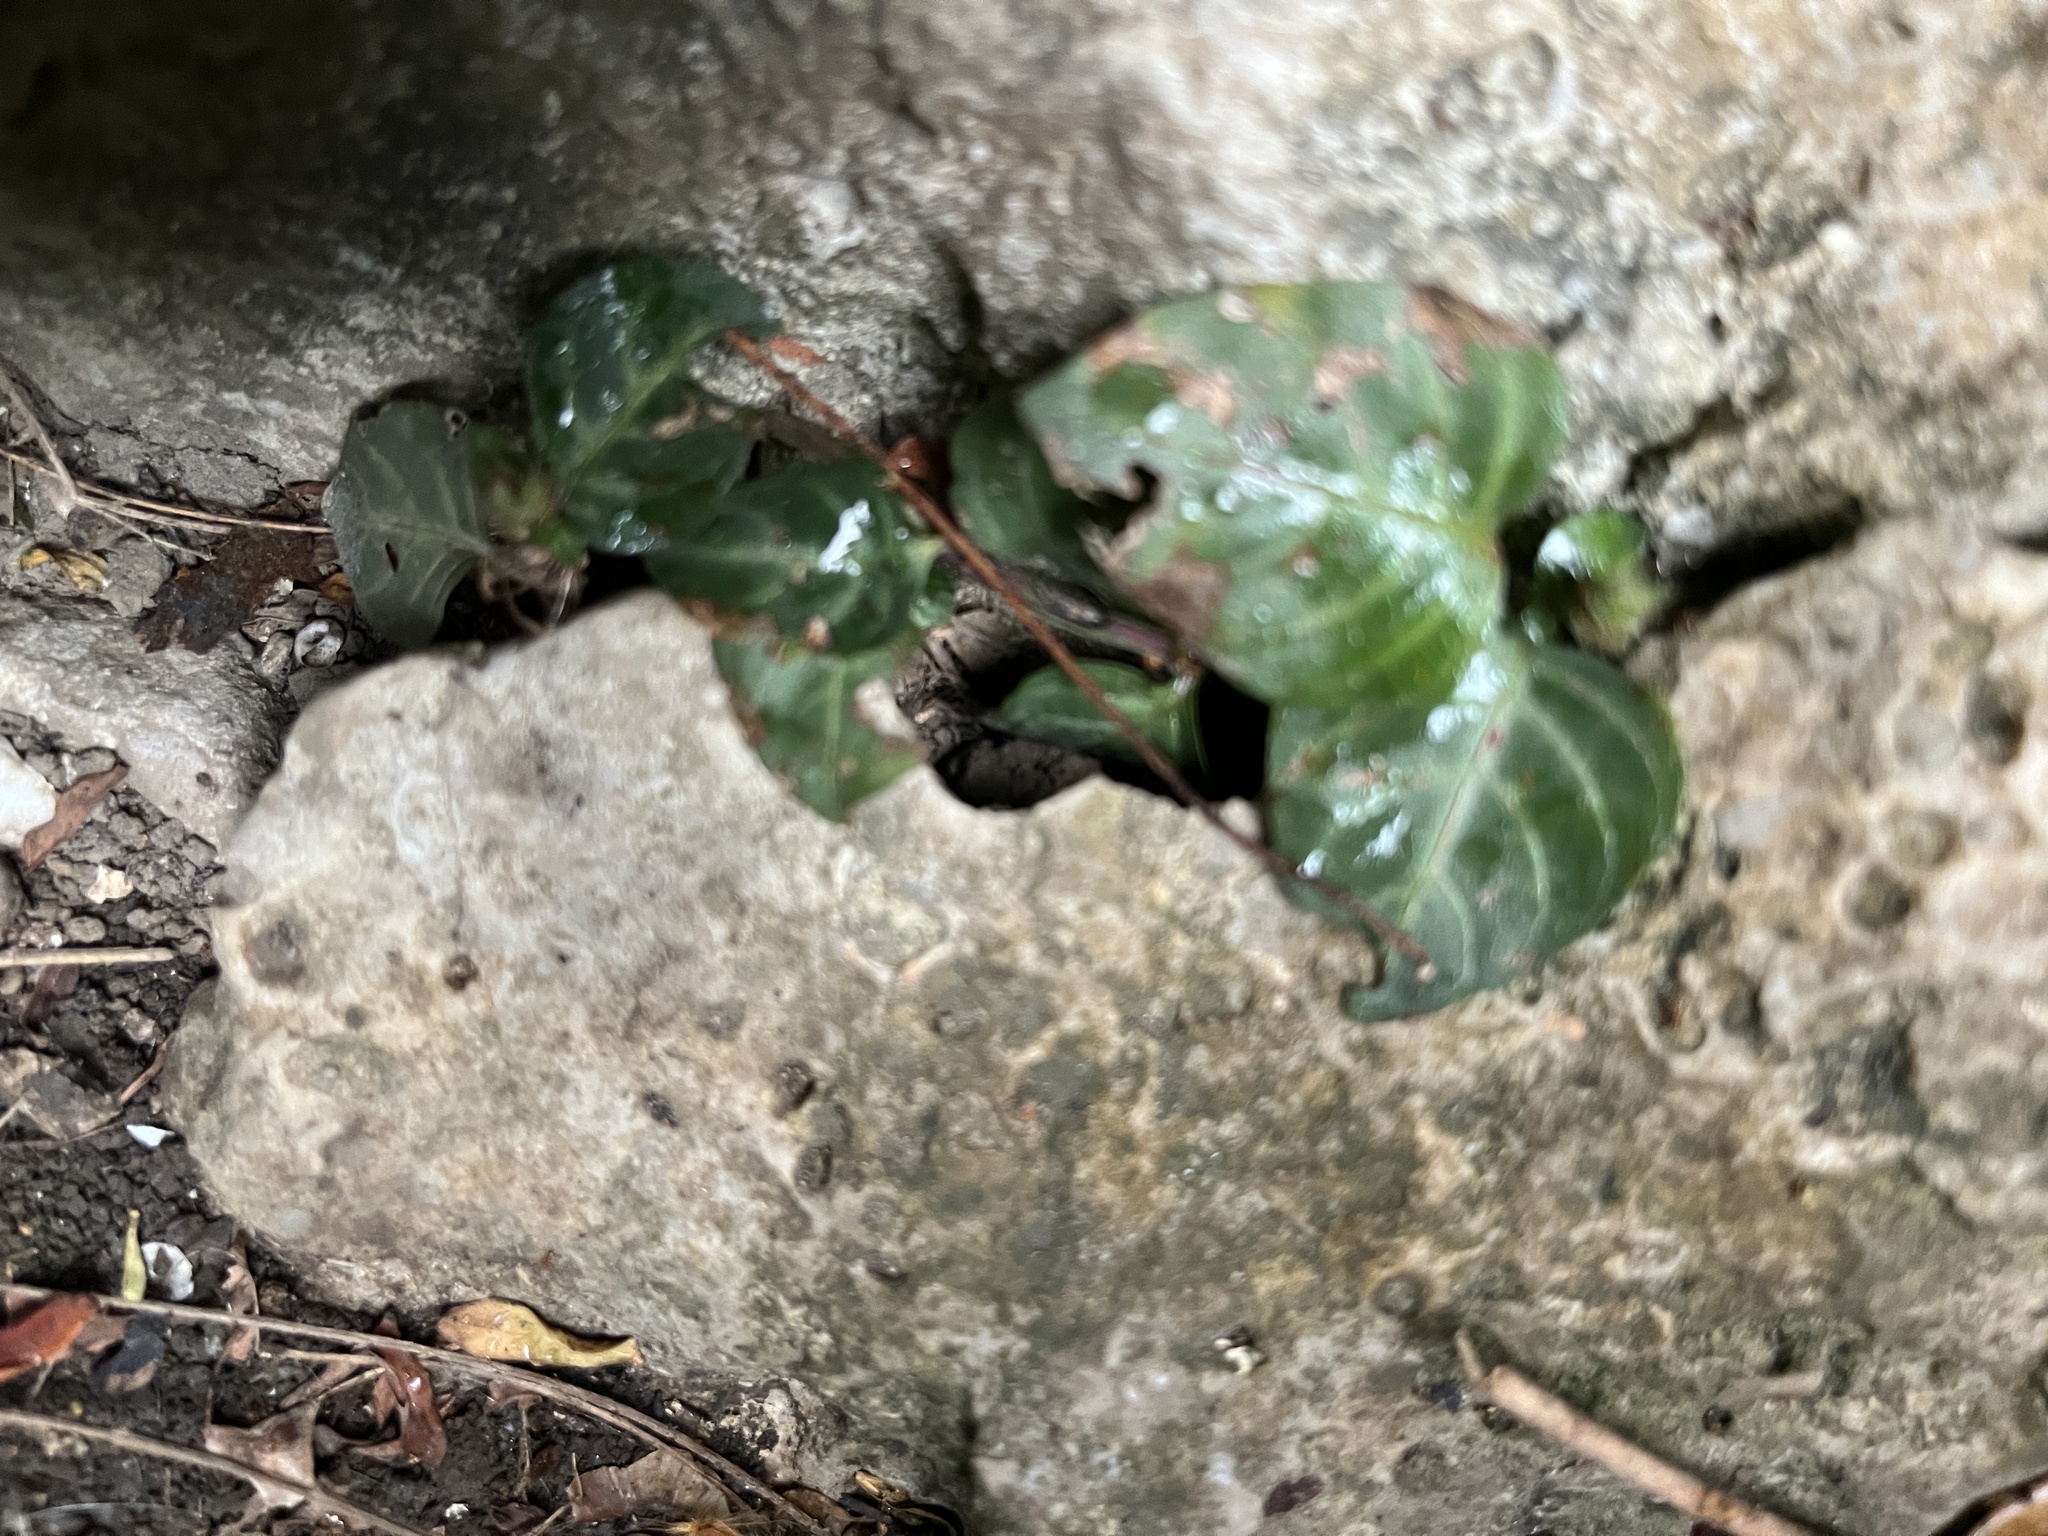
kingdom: Plantae
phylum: Tracheophyta
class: Magnoliopsida
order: Lamiales
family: Acanthaceae
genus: Lepidagathis
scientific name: Lepidagathis inaequalis
